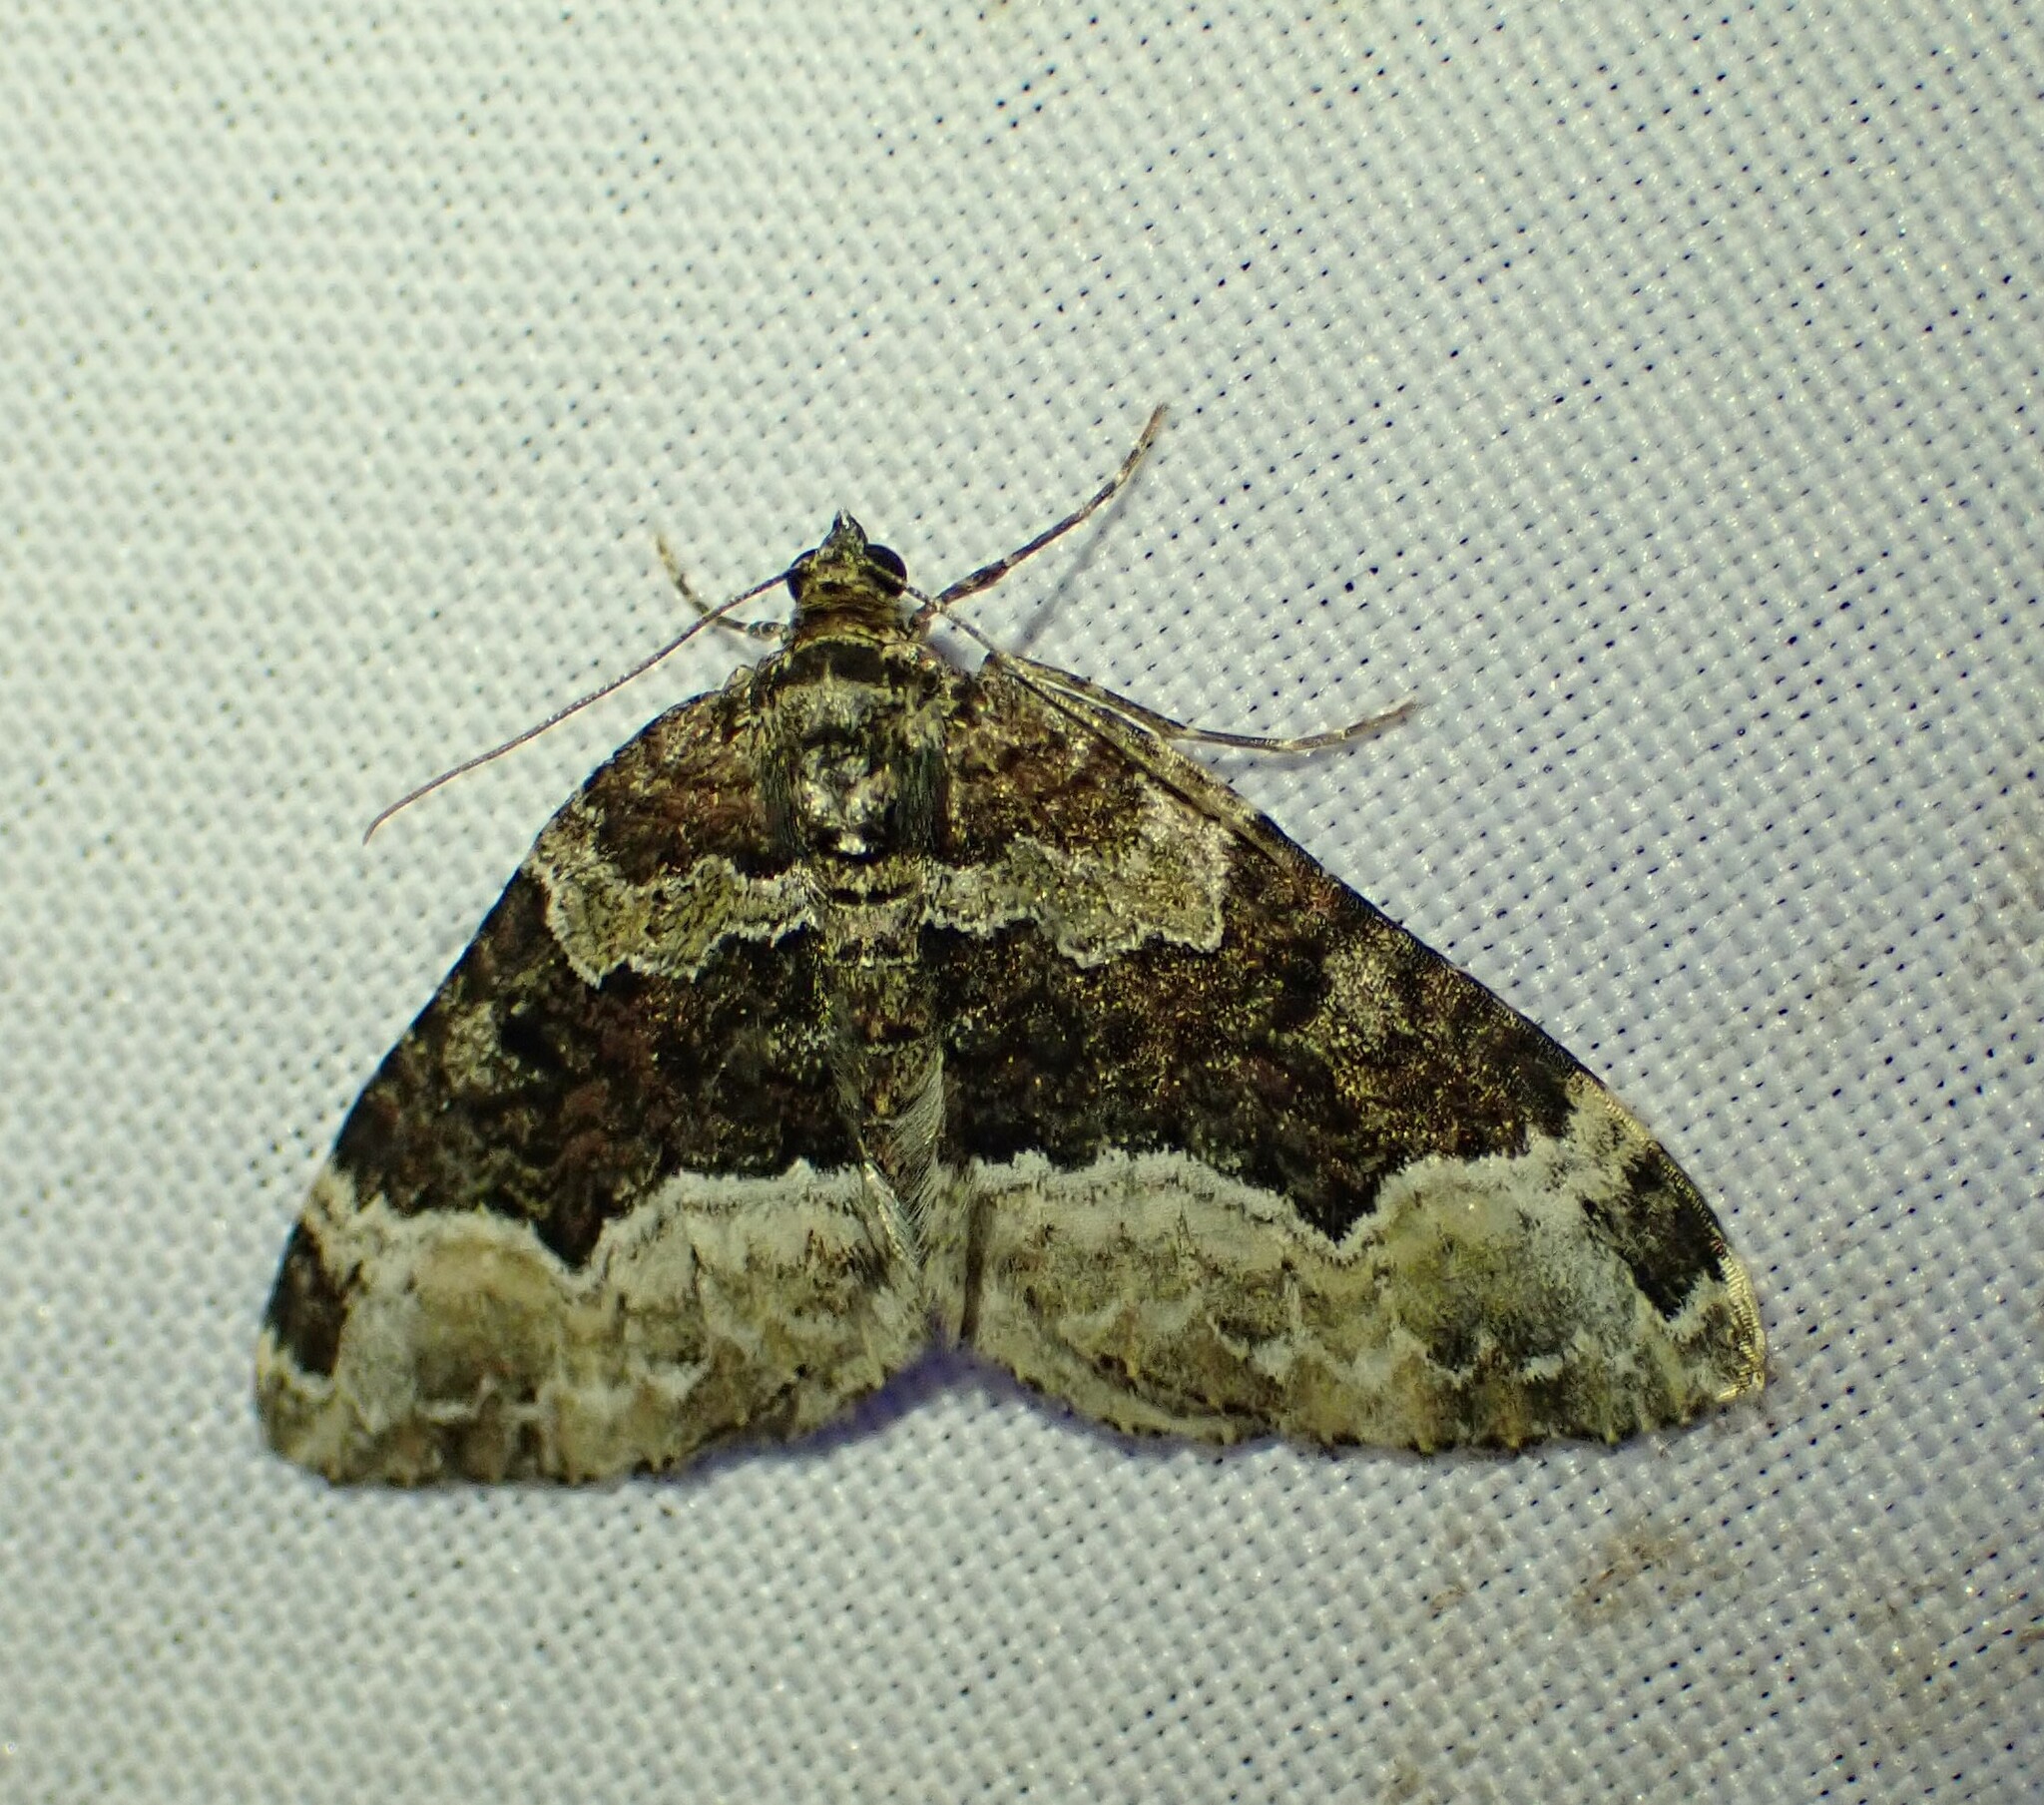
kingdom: Animalia
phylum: Arthropoda
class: Insecta
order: Lepidoptera
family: Geometridae
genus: Euphyia
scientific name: Euphyia intermediata
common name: Sharp-angled carpet
